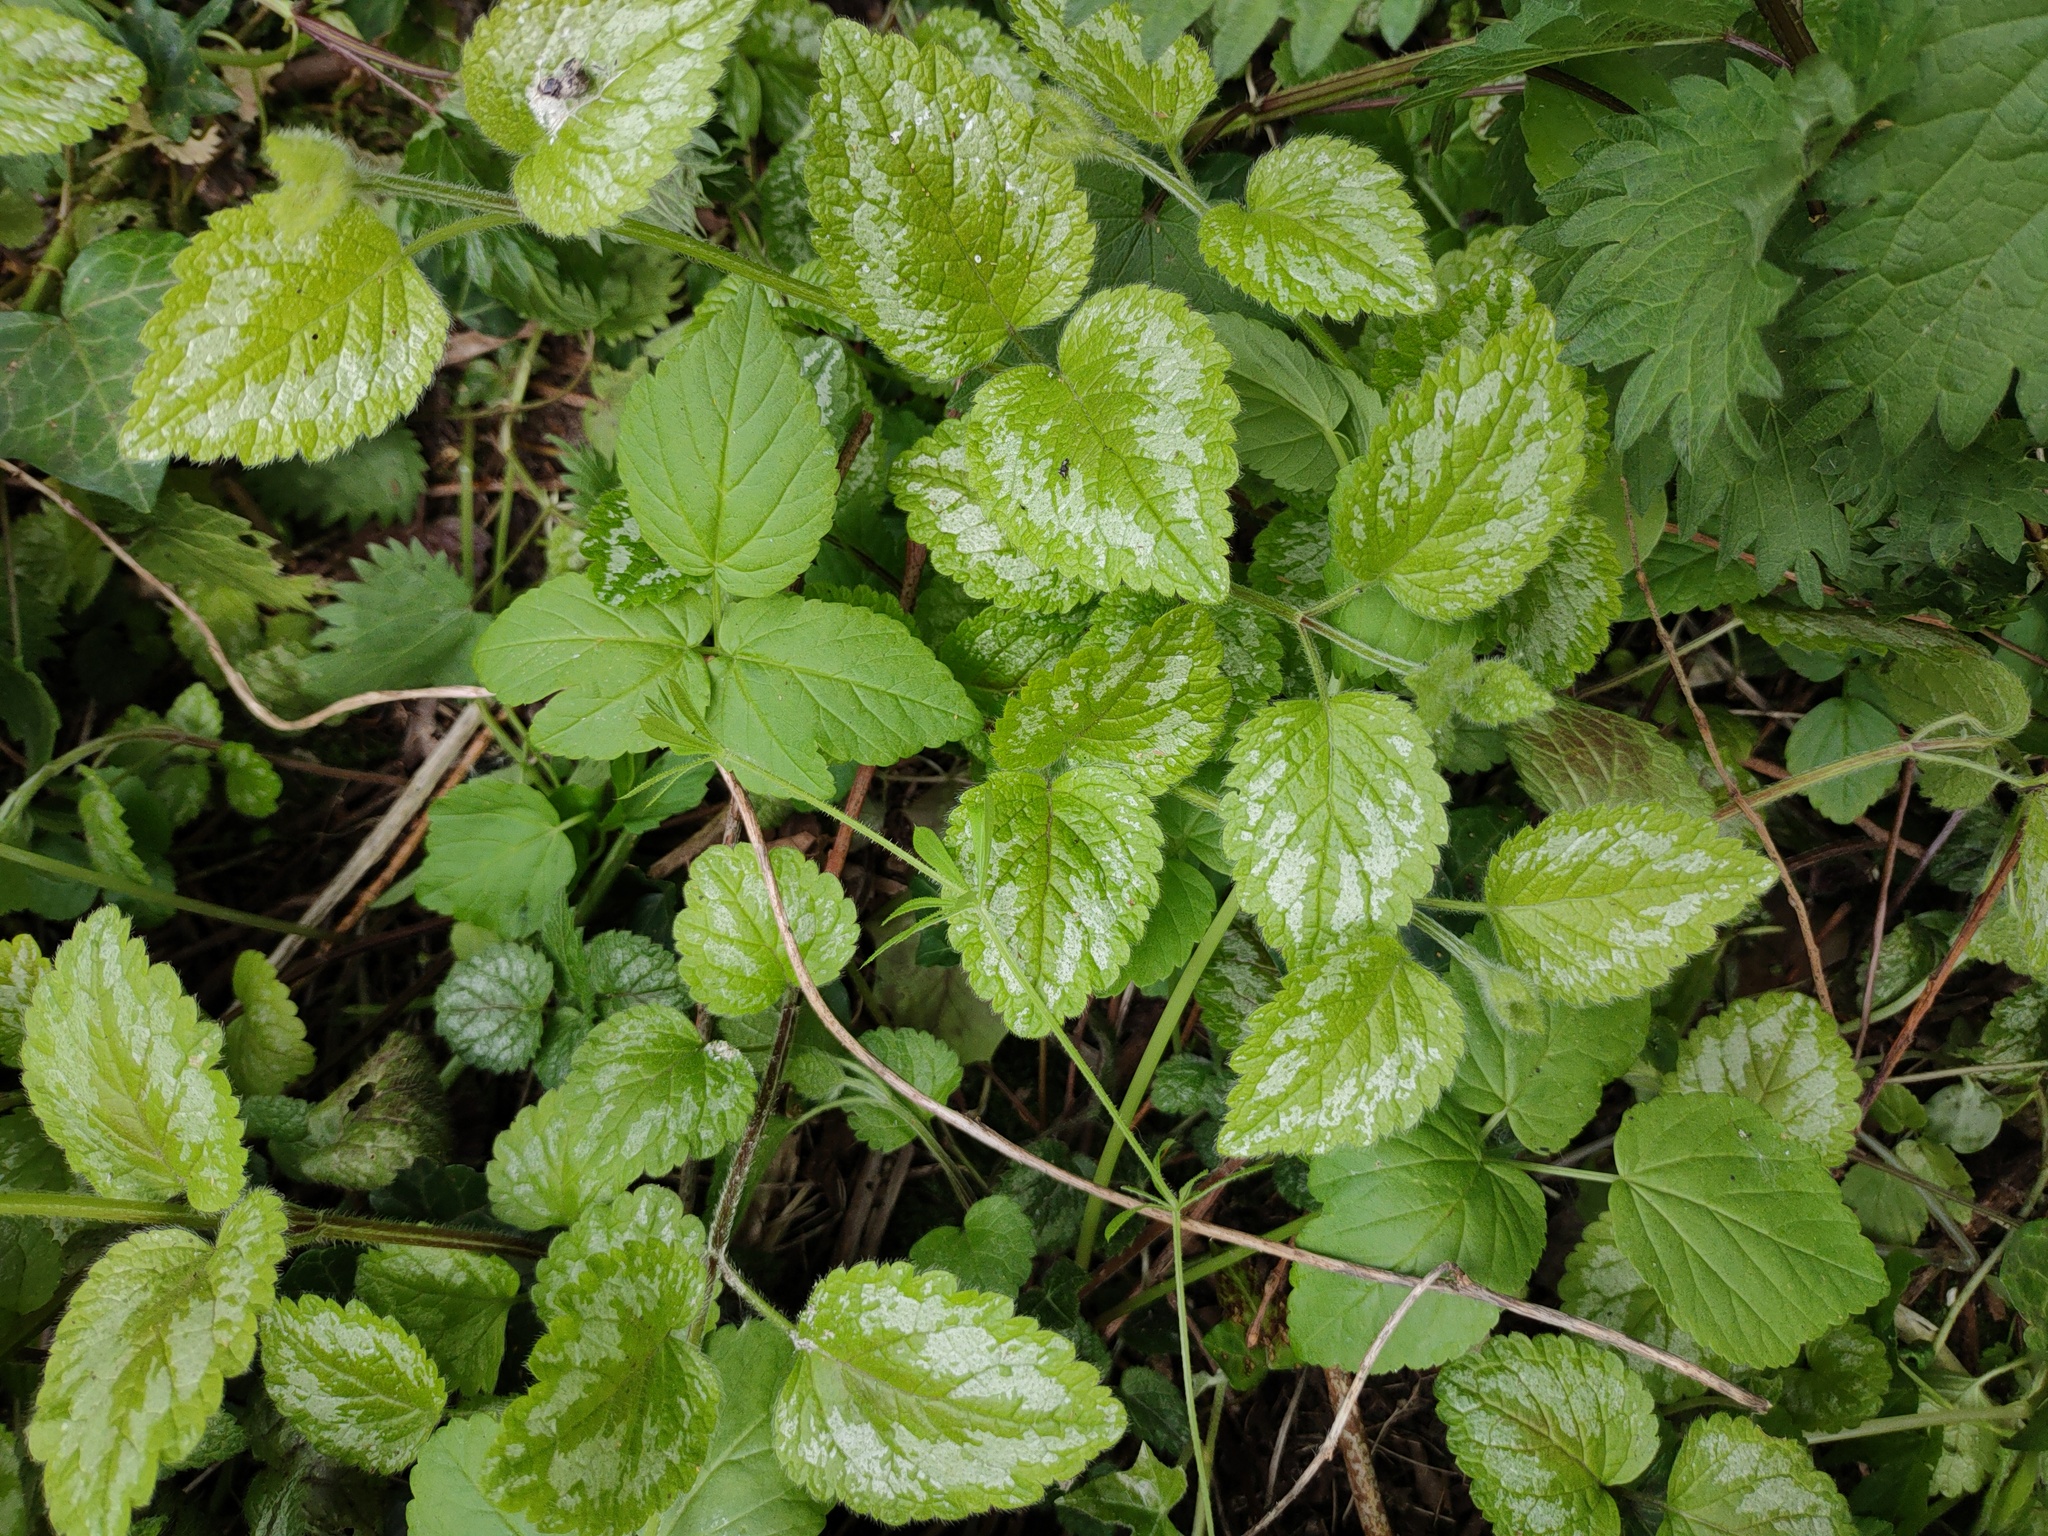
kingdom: Plantae
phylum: Tracheophyta
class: Magnoliopsida
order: Lamiales
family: Lamiaceae
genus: Lamium
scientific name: Lamium galeobdolon
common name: Yellow archangel
